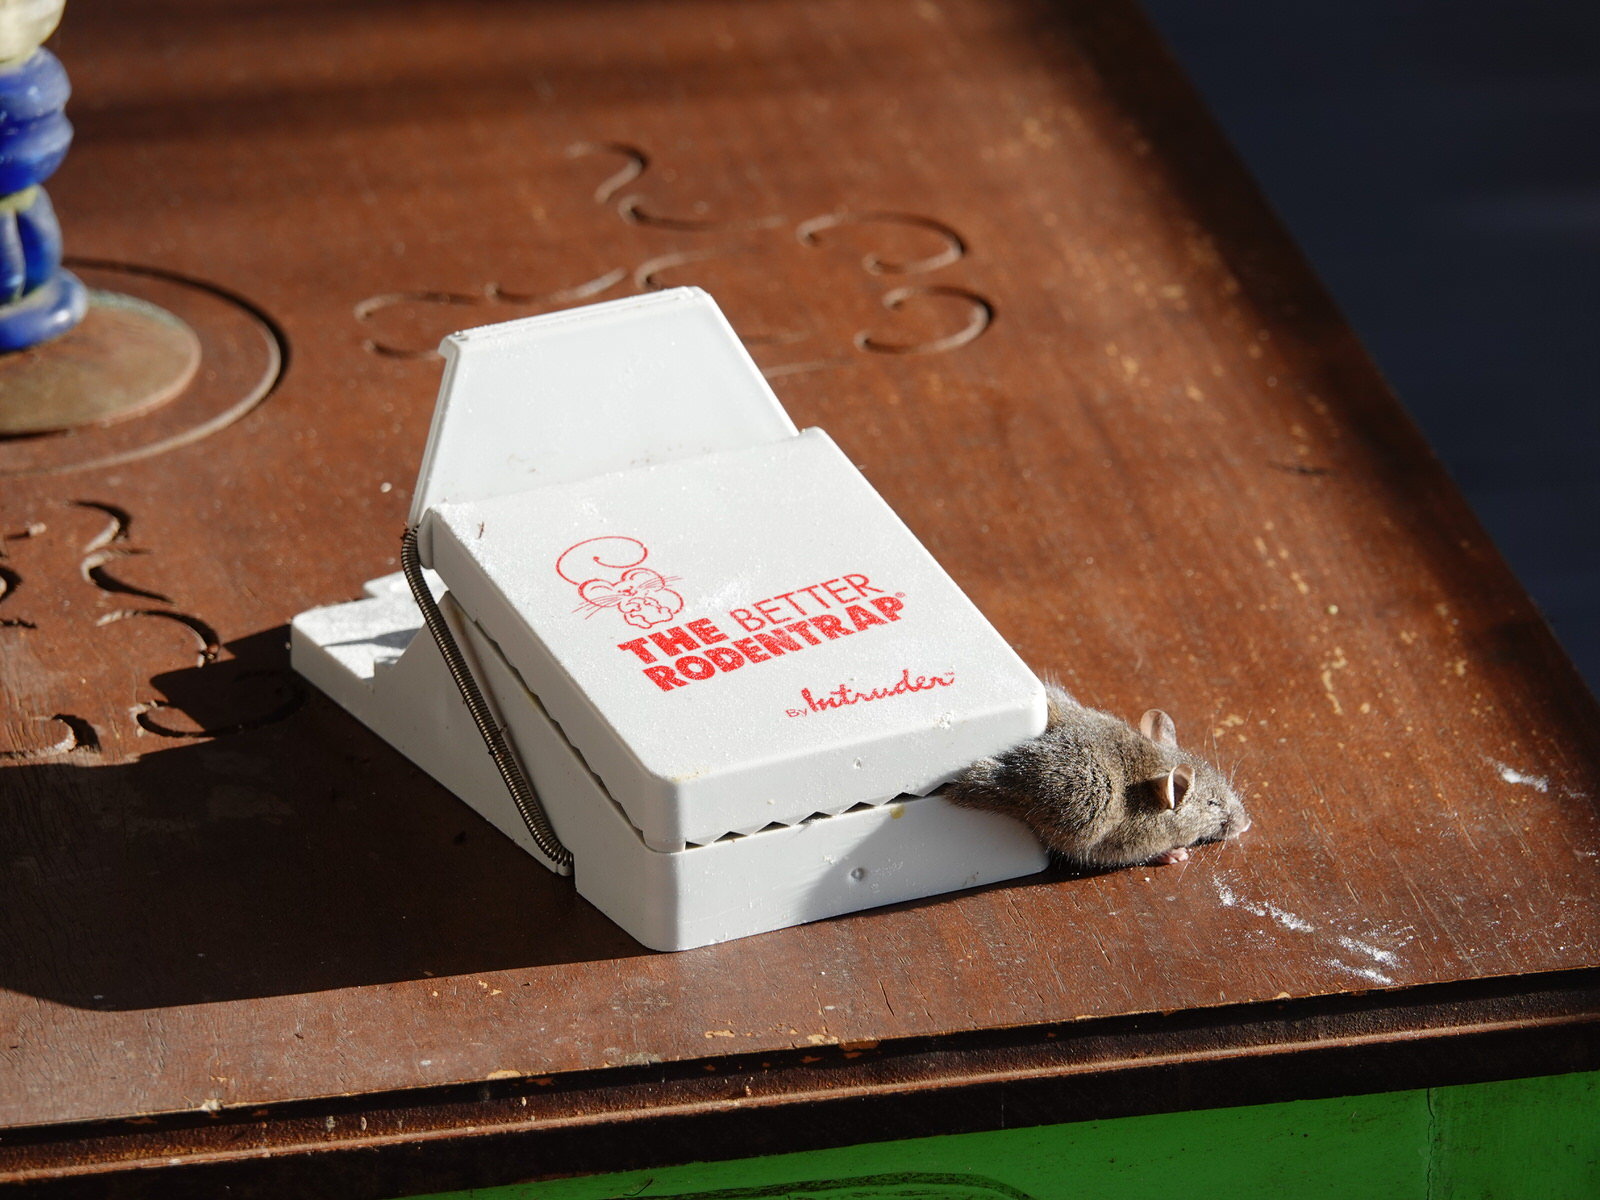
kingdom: Animalia
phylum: Chordata
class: Mammalia
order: Rodentia
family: Muridae
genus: Mus
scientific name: Mus musculus
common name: House mouse
